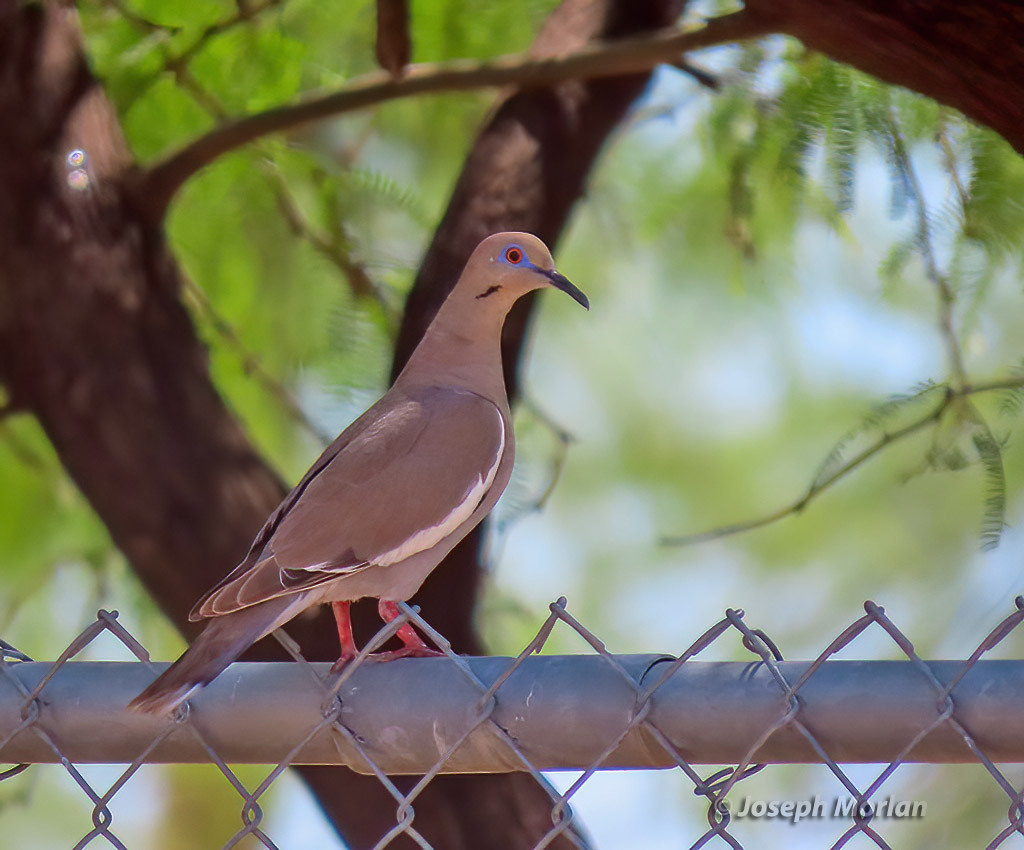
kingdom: Animalia
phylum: Chordata
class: Aves
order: Columbiformes
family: Columbidae
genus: Zenaida
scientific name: Zenaida asiatica
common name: White-winged dove
